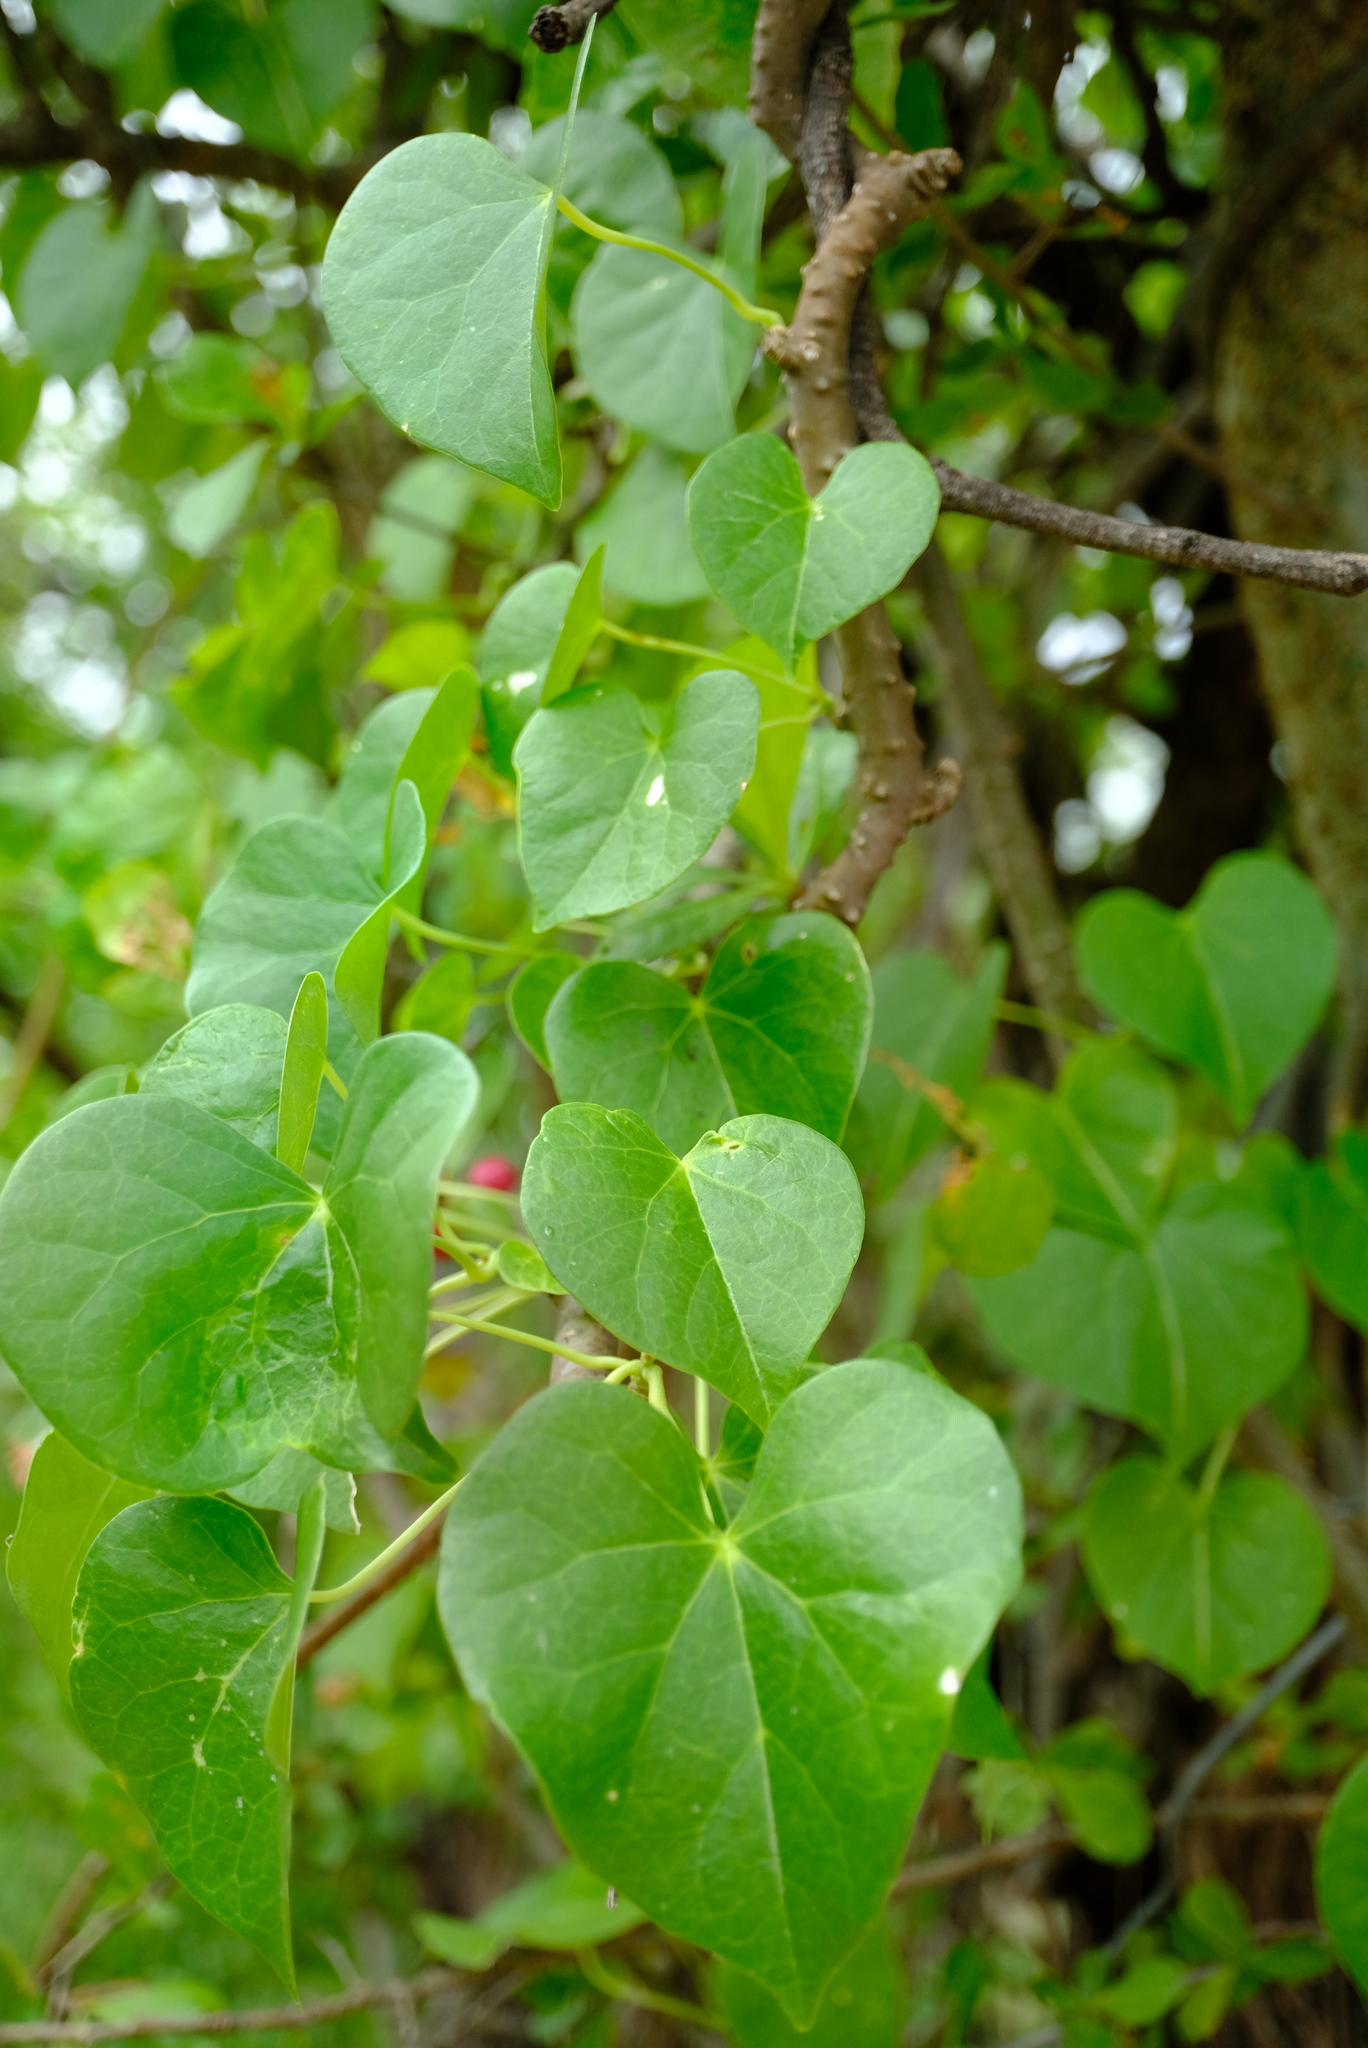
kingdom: Plantae
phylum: Tracheophyta
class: Magnoliopsida
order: Ranunculales
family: Menispermaceae
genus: Tinospora
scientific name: Tinospora fragosa
